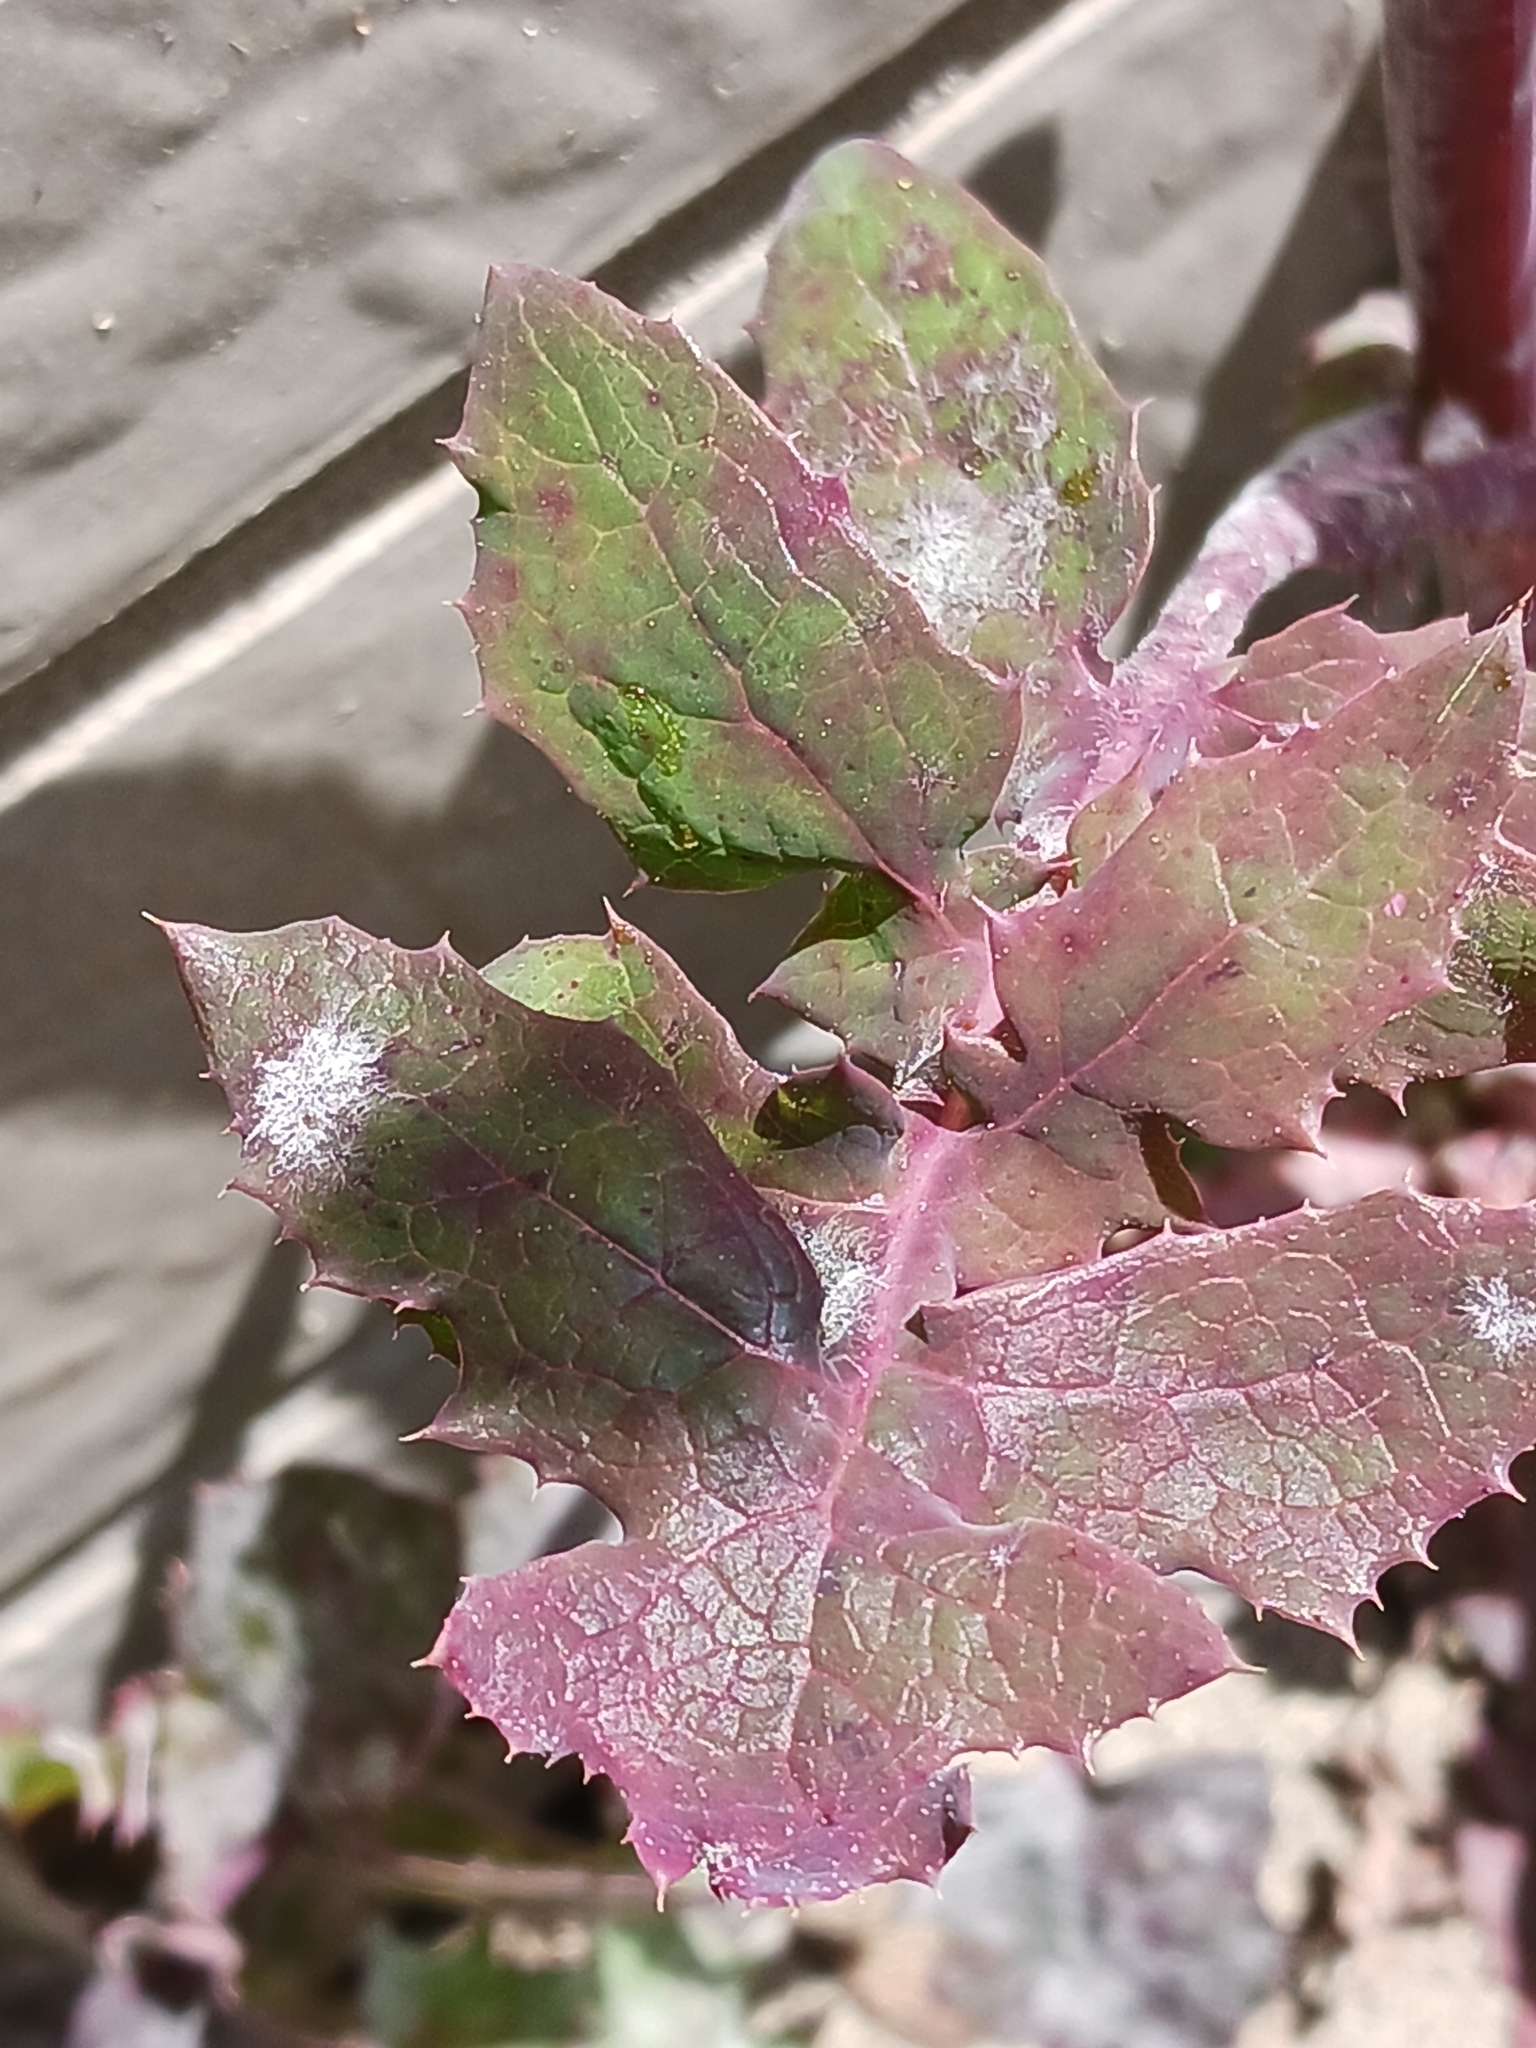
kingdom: Fungi
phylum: Ascomycota
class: Leotiomycetes
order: Helotiales
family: Erysiphaceae
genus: Golovinomyces
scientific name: Golovinomyces sonchicola
